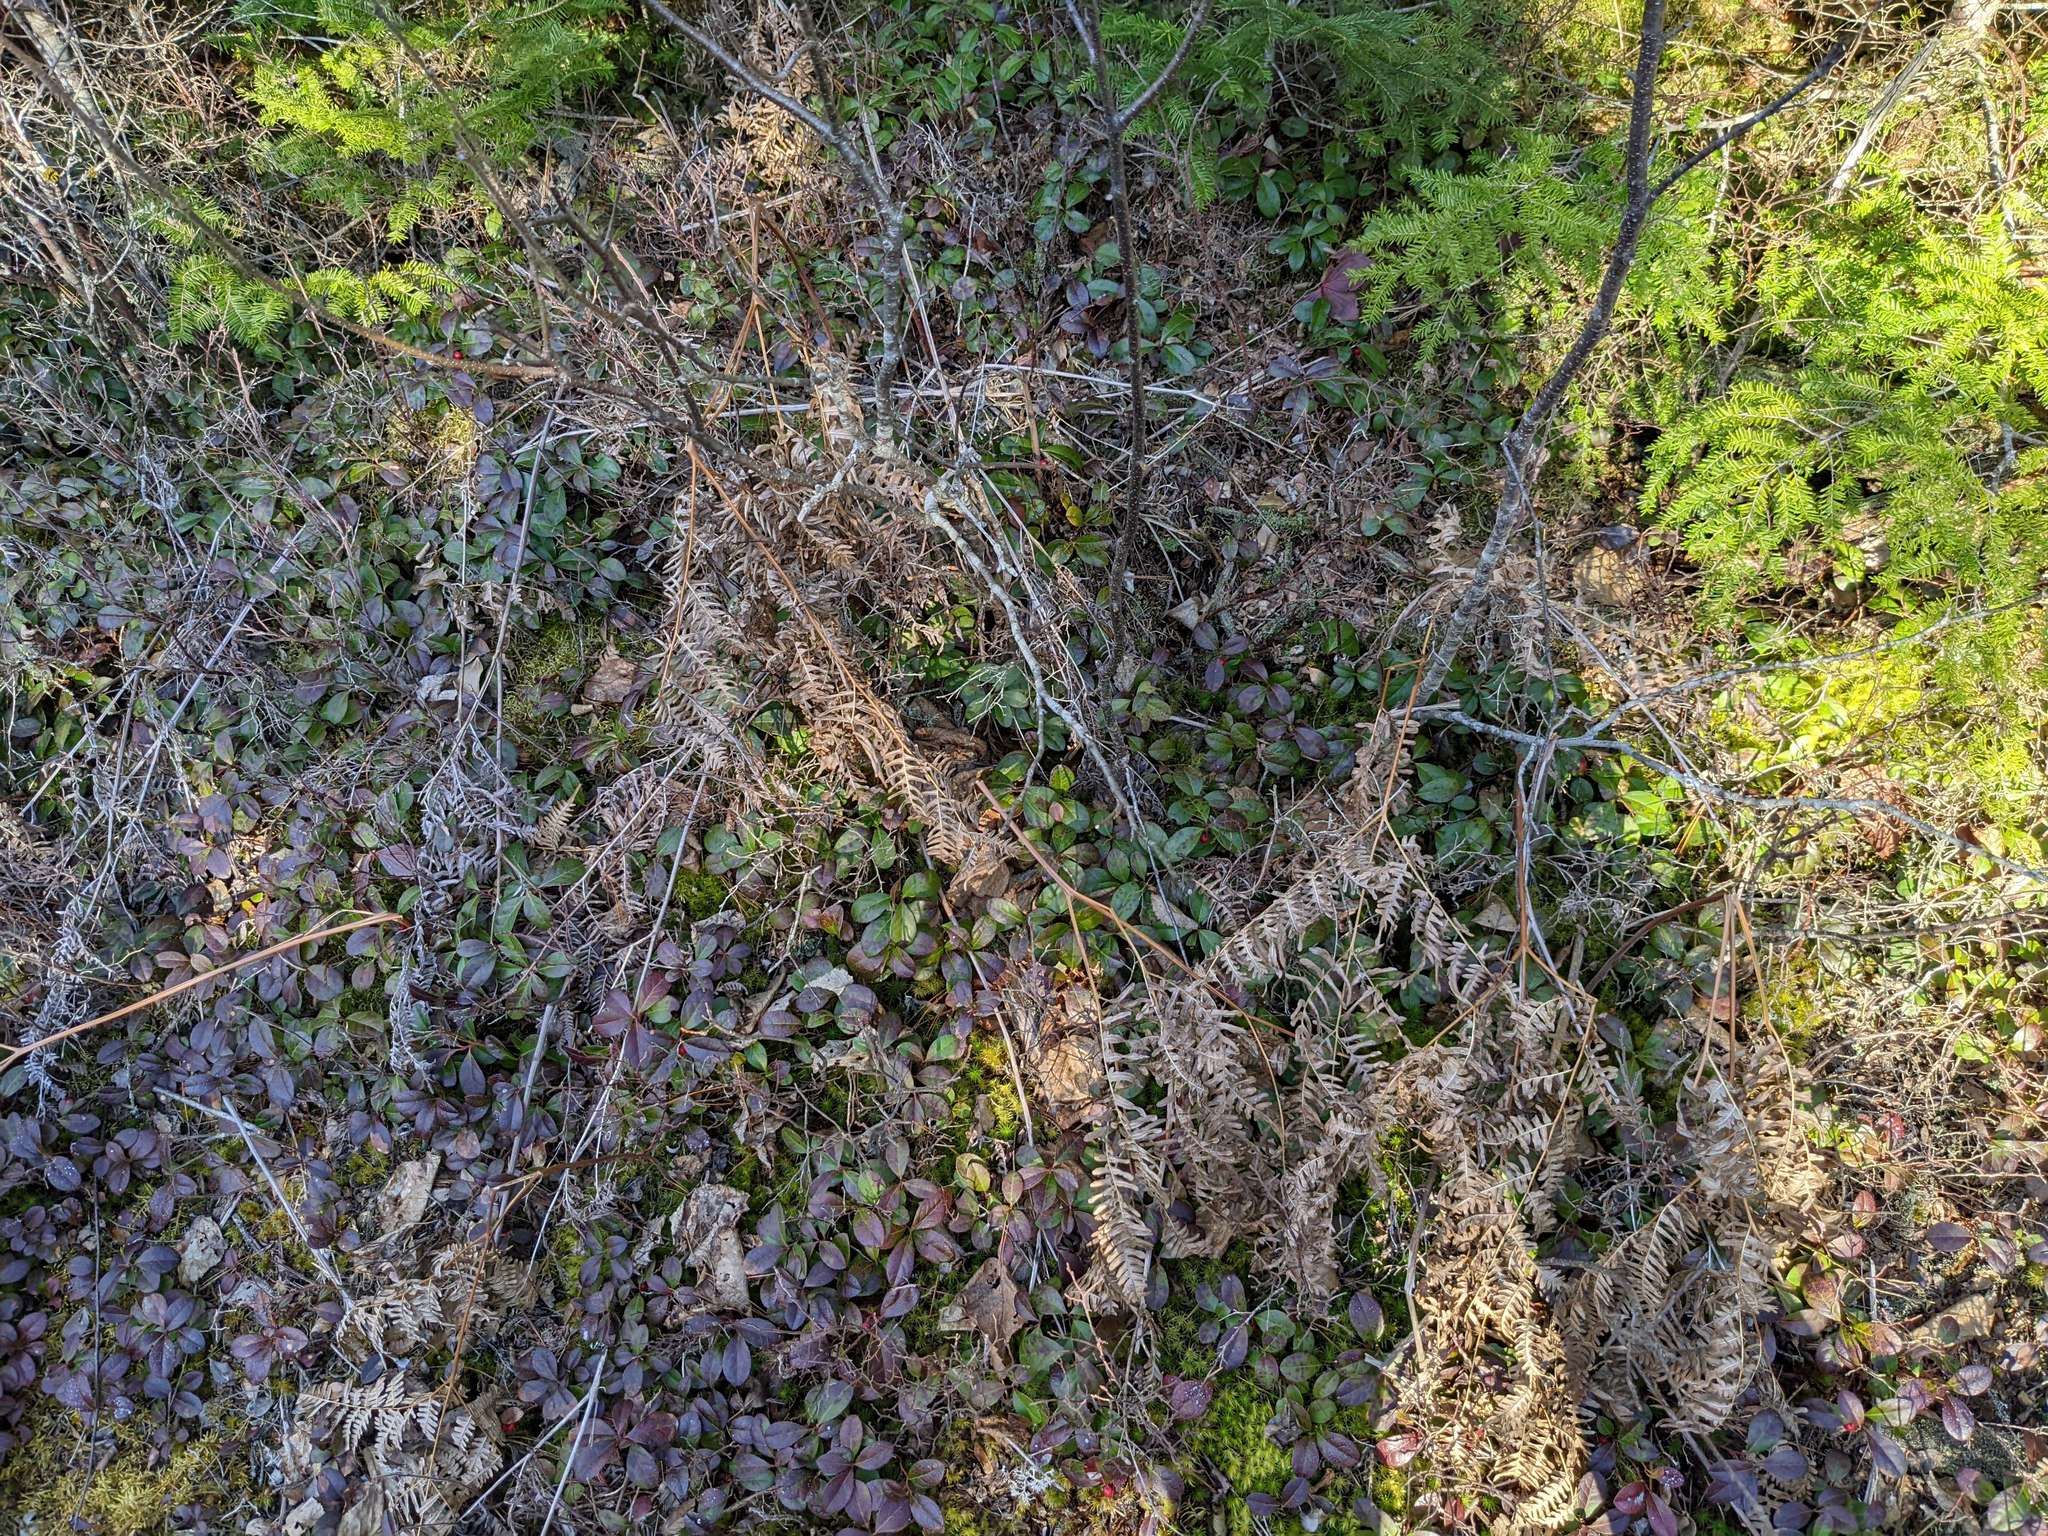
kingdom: Plantae
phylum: Tracheophyta
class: Polypodiopsida
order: Polypodiales
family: Dennstaedtiaceae
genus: Pteridium
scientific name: Pteridium aquilinum
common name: Bracken
